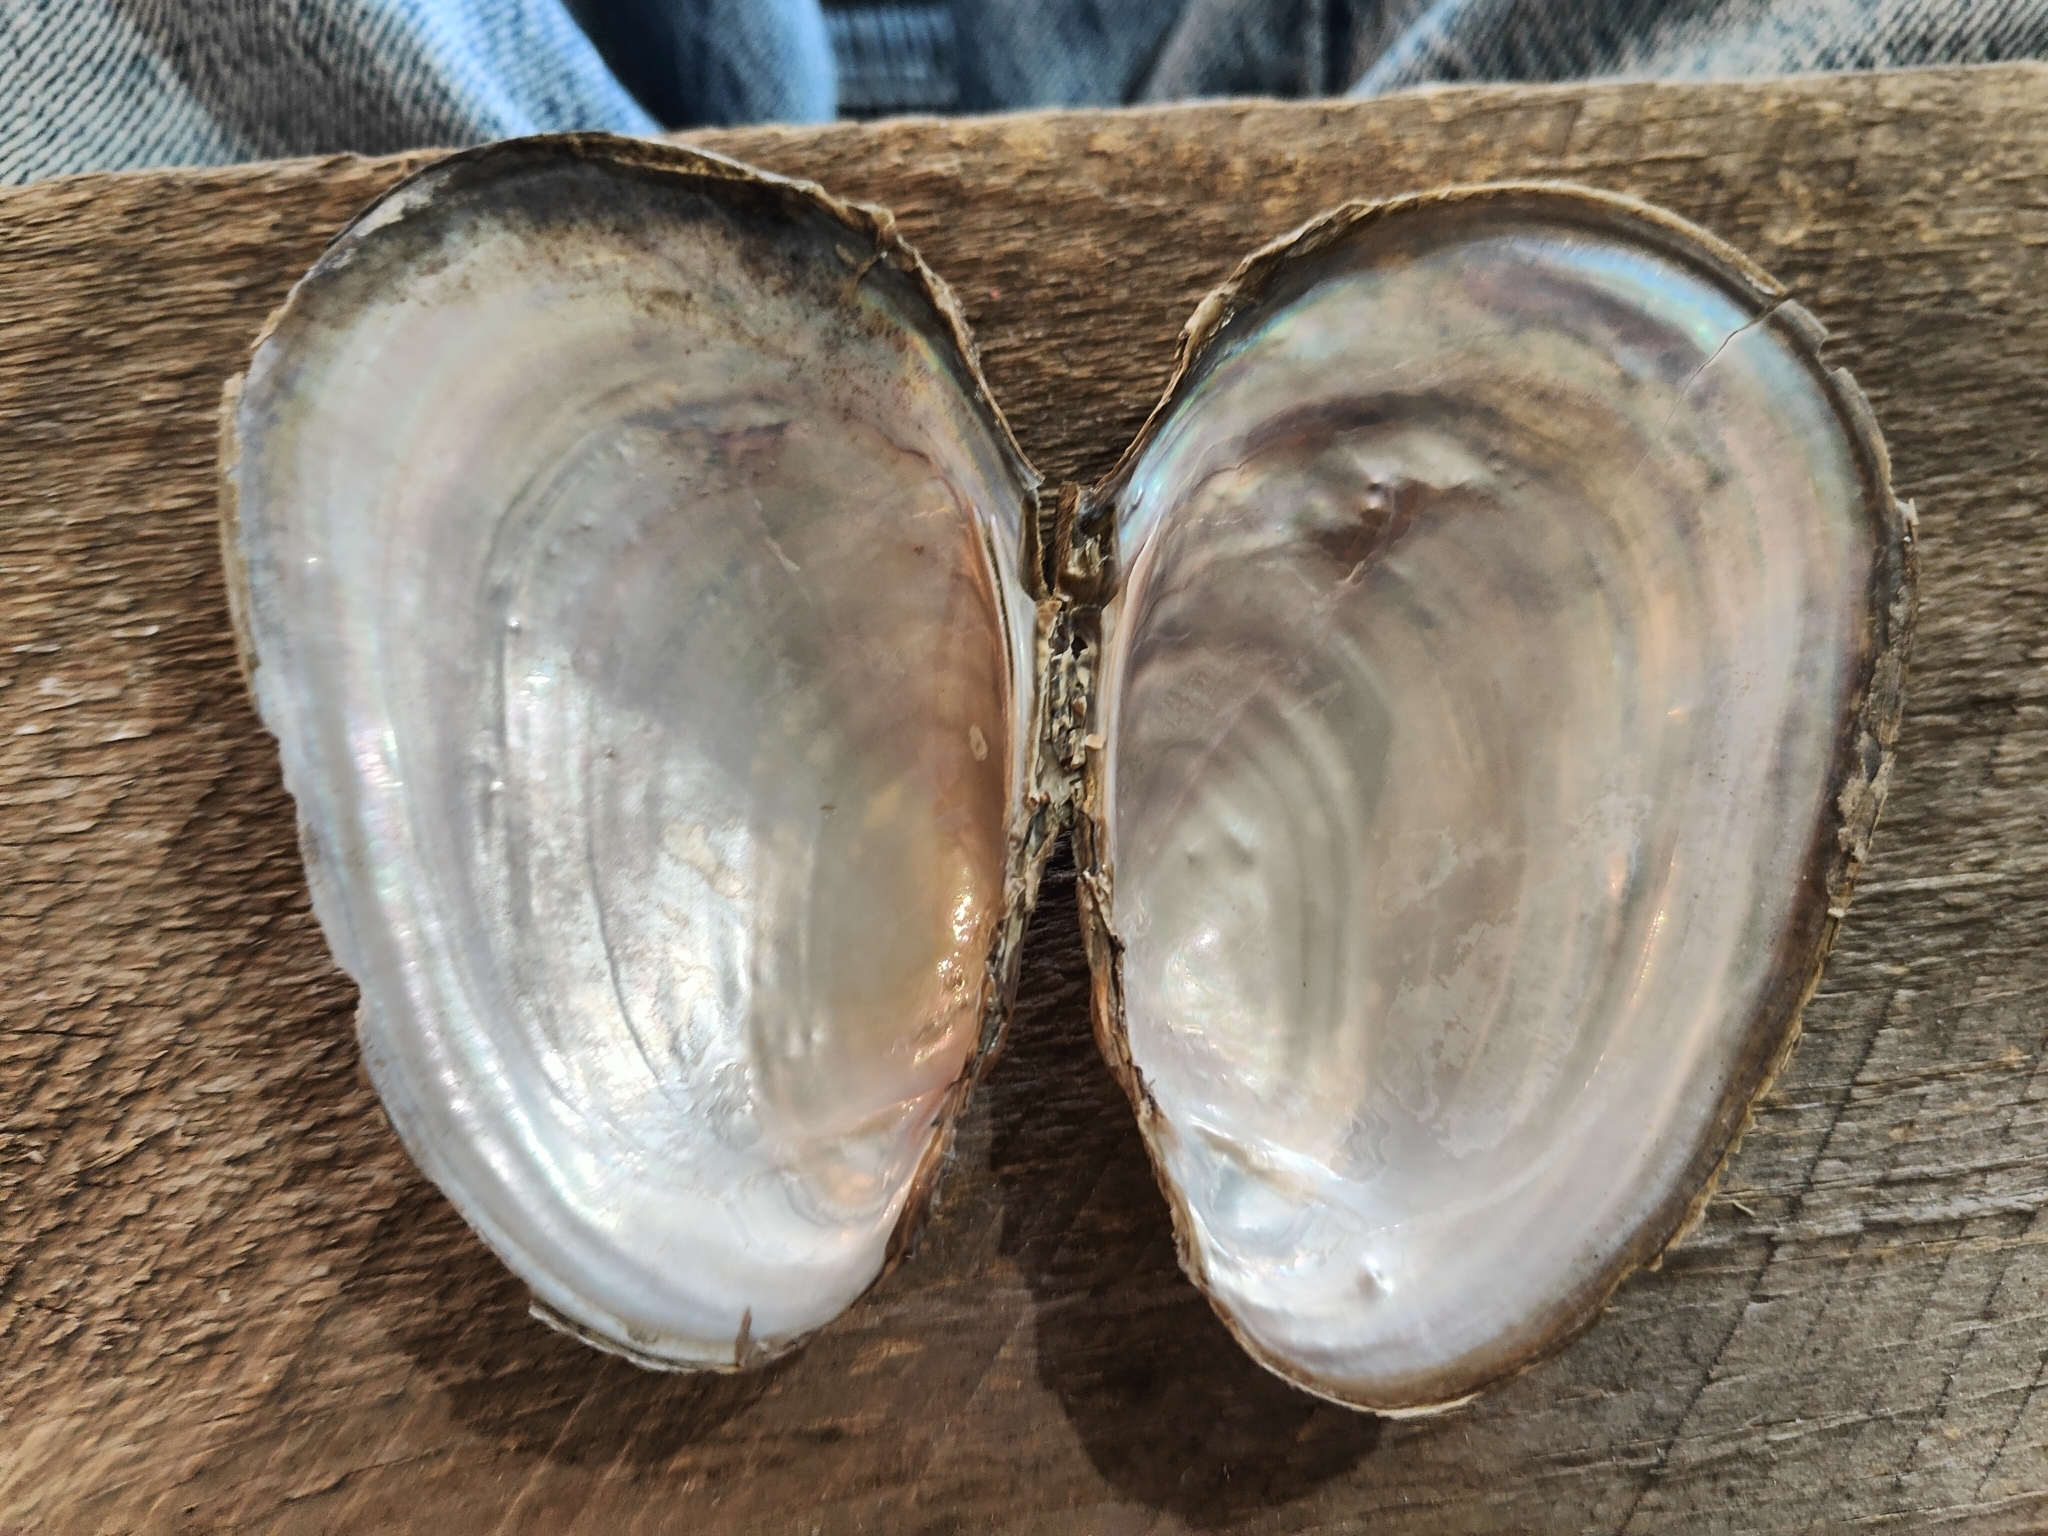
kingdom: Animalia
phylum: Mollusca
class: Bivalvia
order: Unionida
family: Unionidae
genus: Potamilus
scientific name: Potamilus fragilis
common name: Fragile papershell
